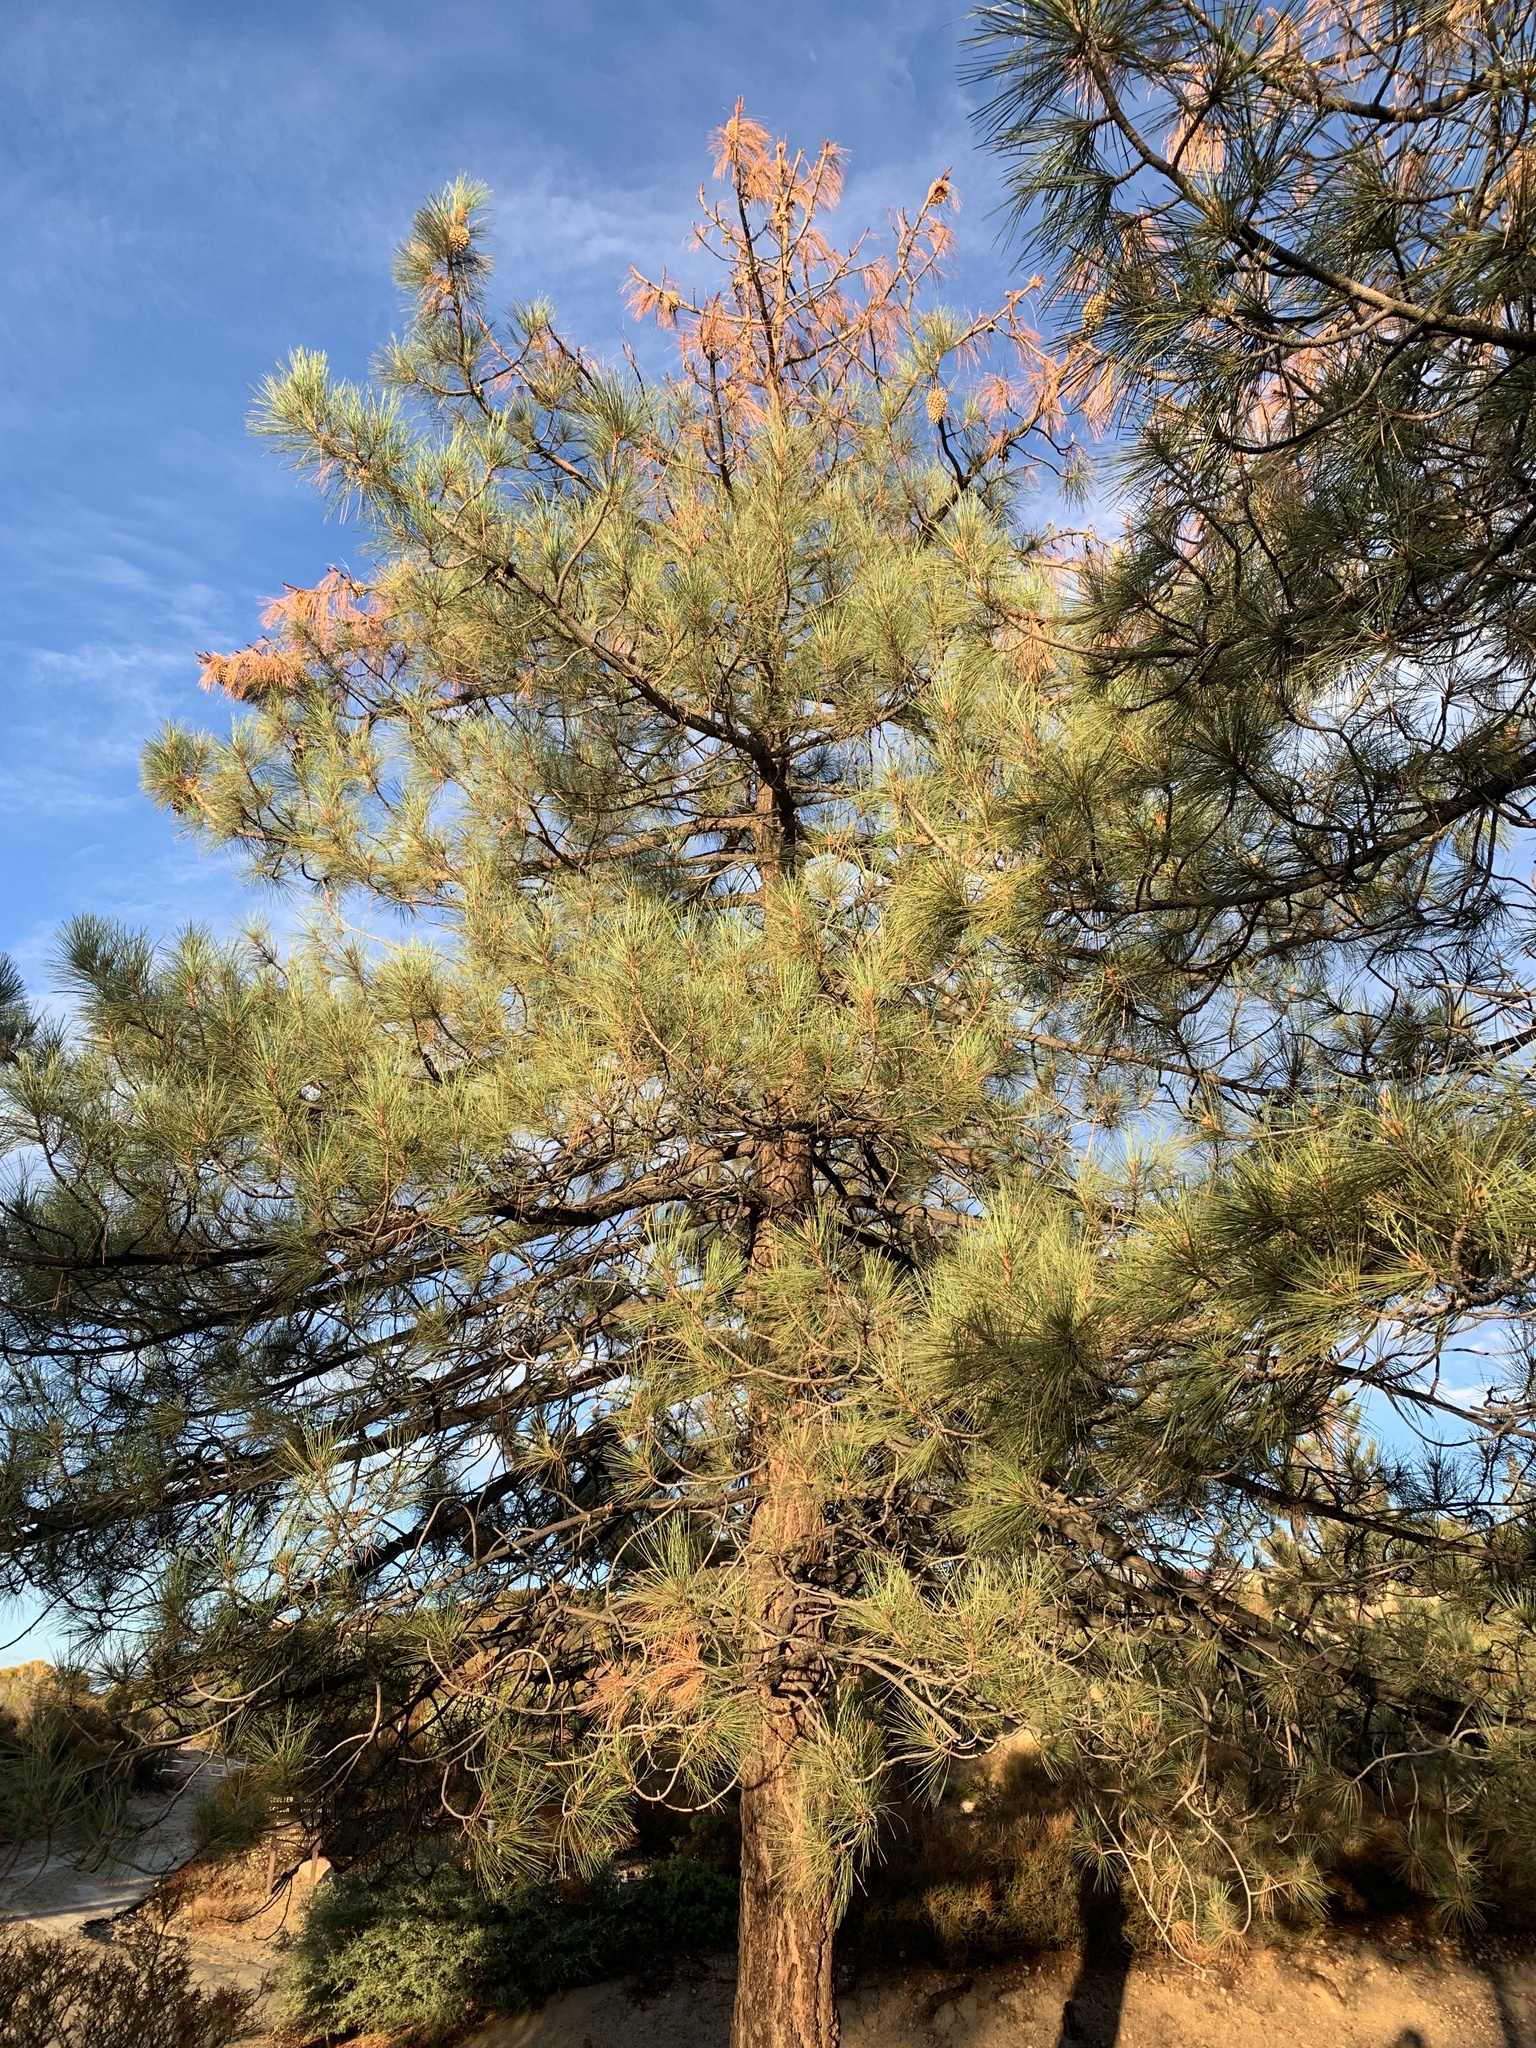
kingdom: Plantae
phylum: Tracheophyta
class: Pinopsida
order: Pinales
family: Pinaceae
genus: Pinus
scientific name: Pinus coulteri
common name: Coulter pine
